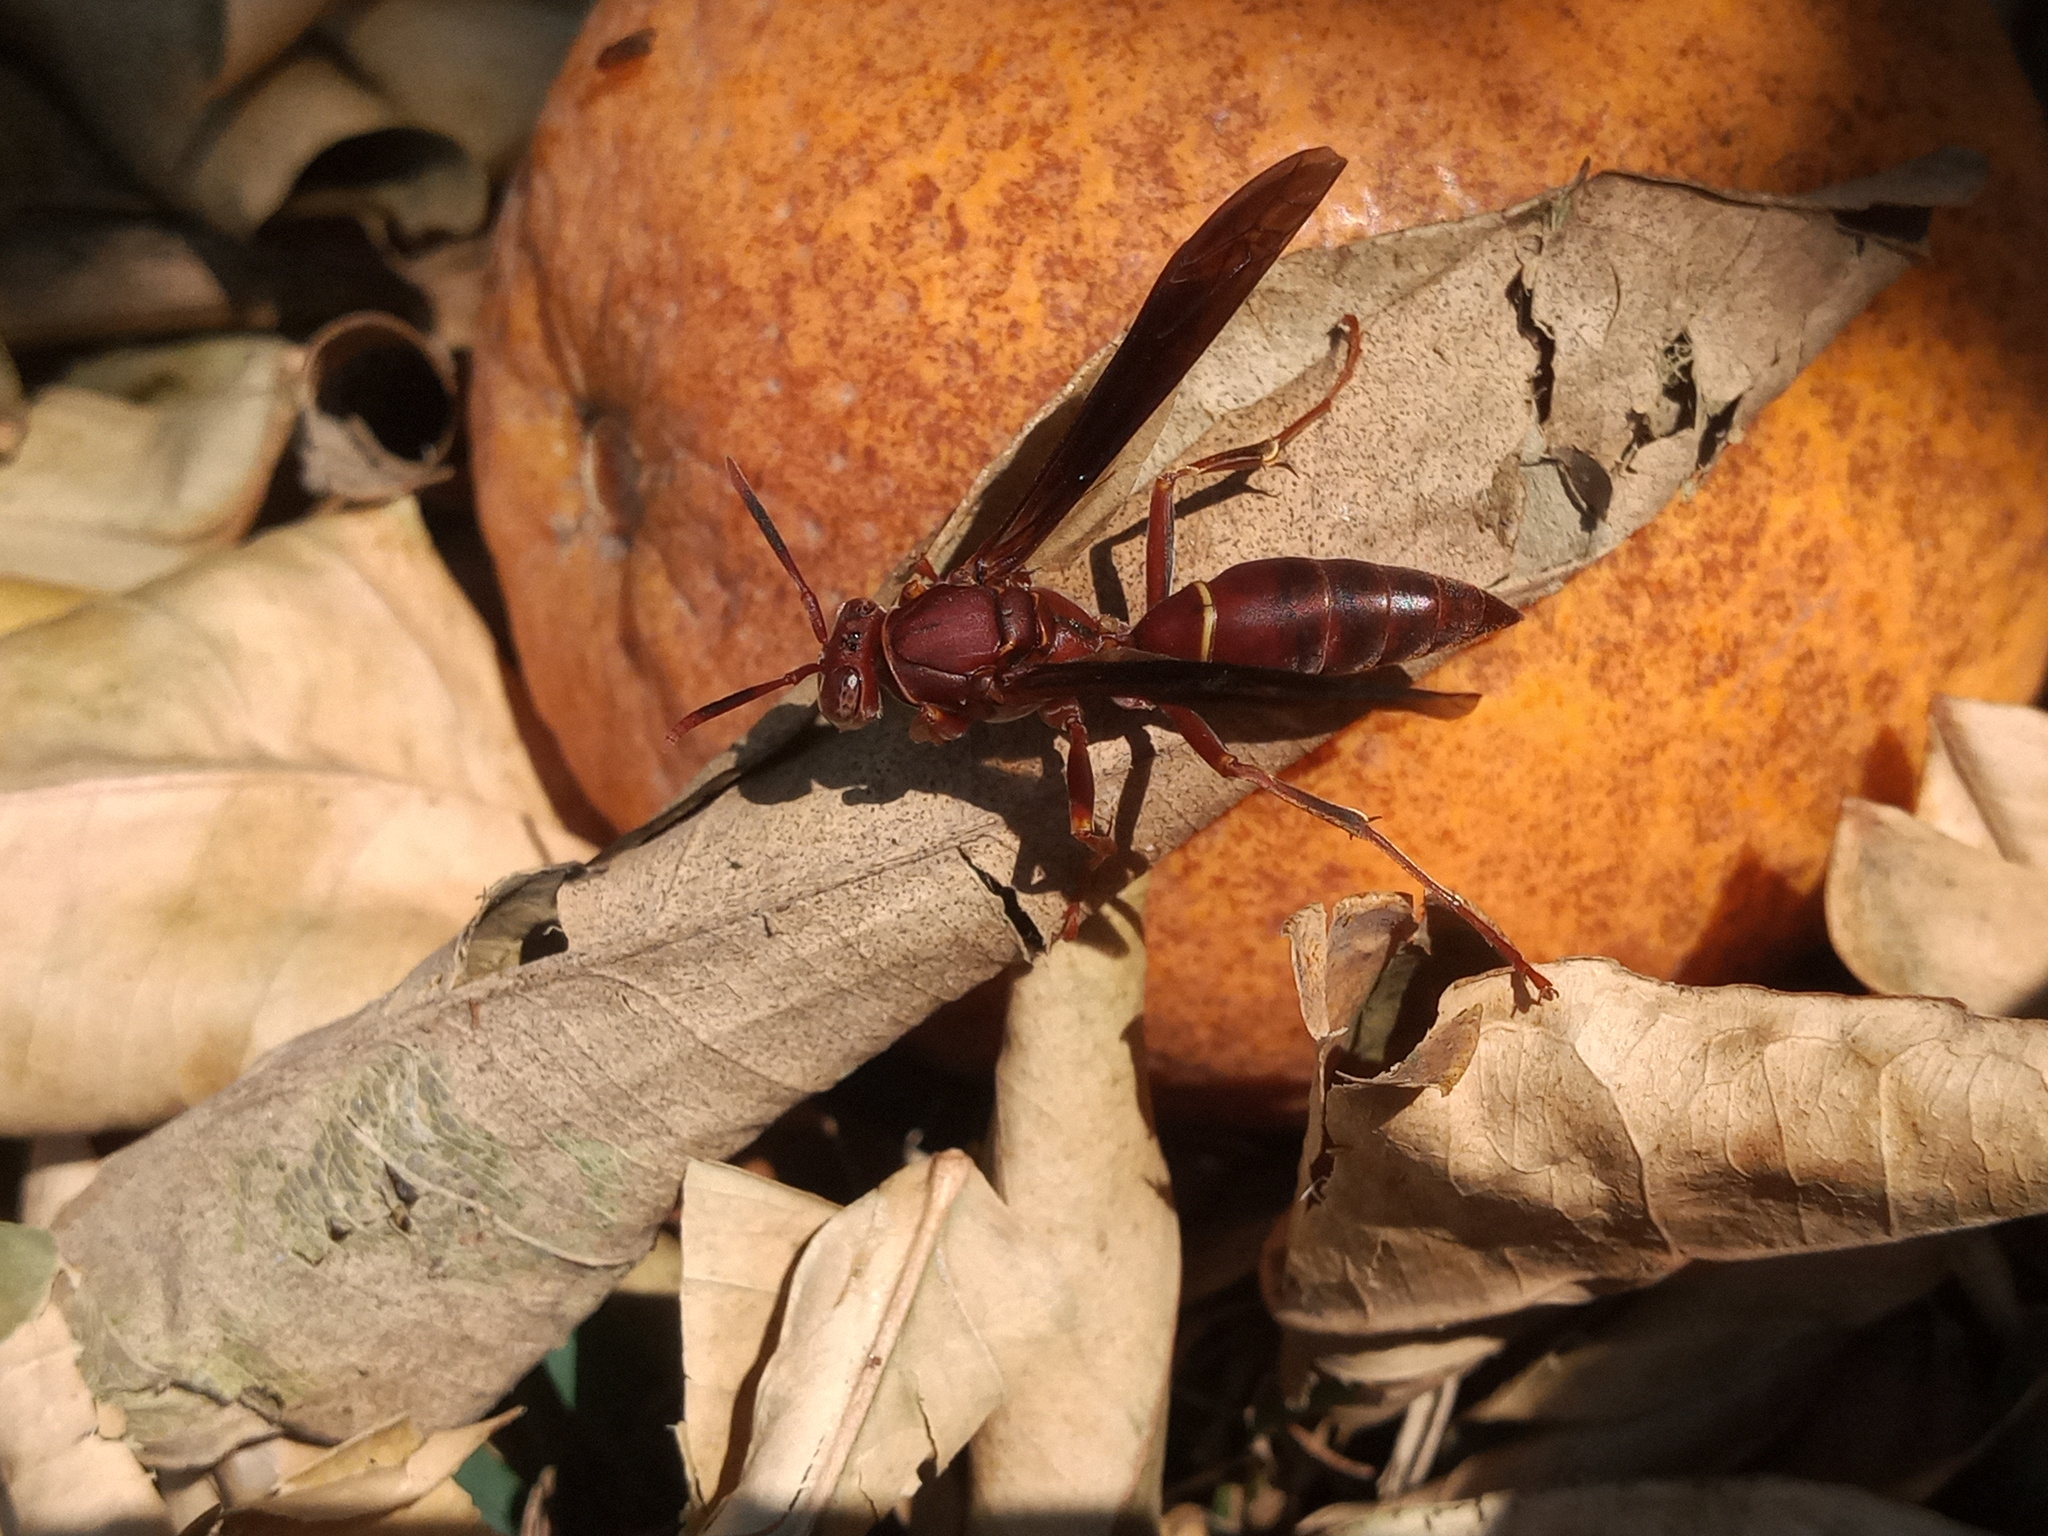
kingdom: Animalia
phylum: Arthropoda
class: Insecta
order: Hymenoptera
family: Eumenidae
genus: Polistes
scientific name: Polistes veracrucis
